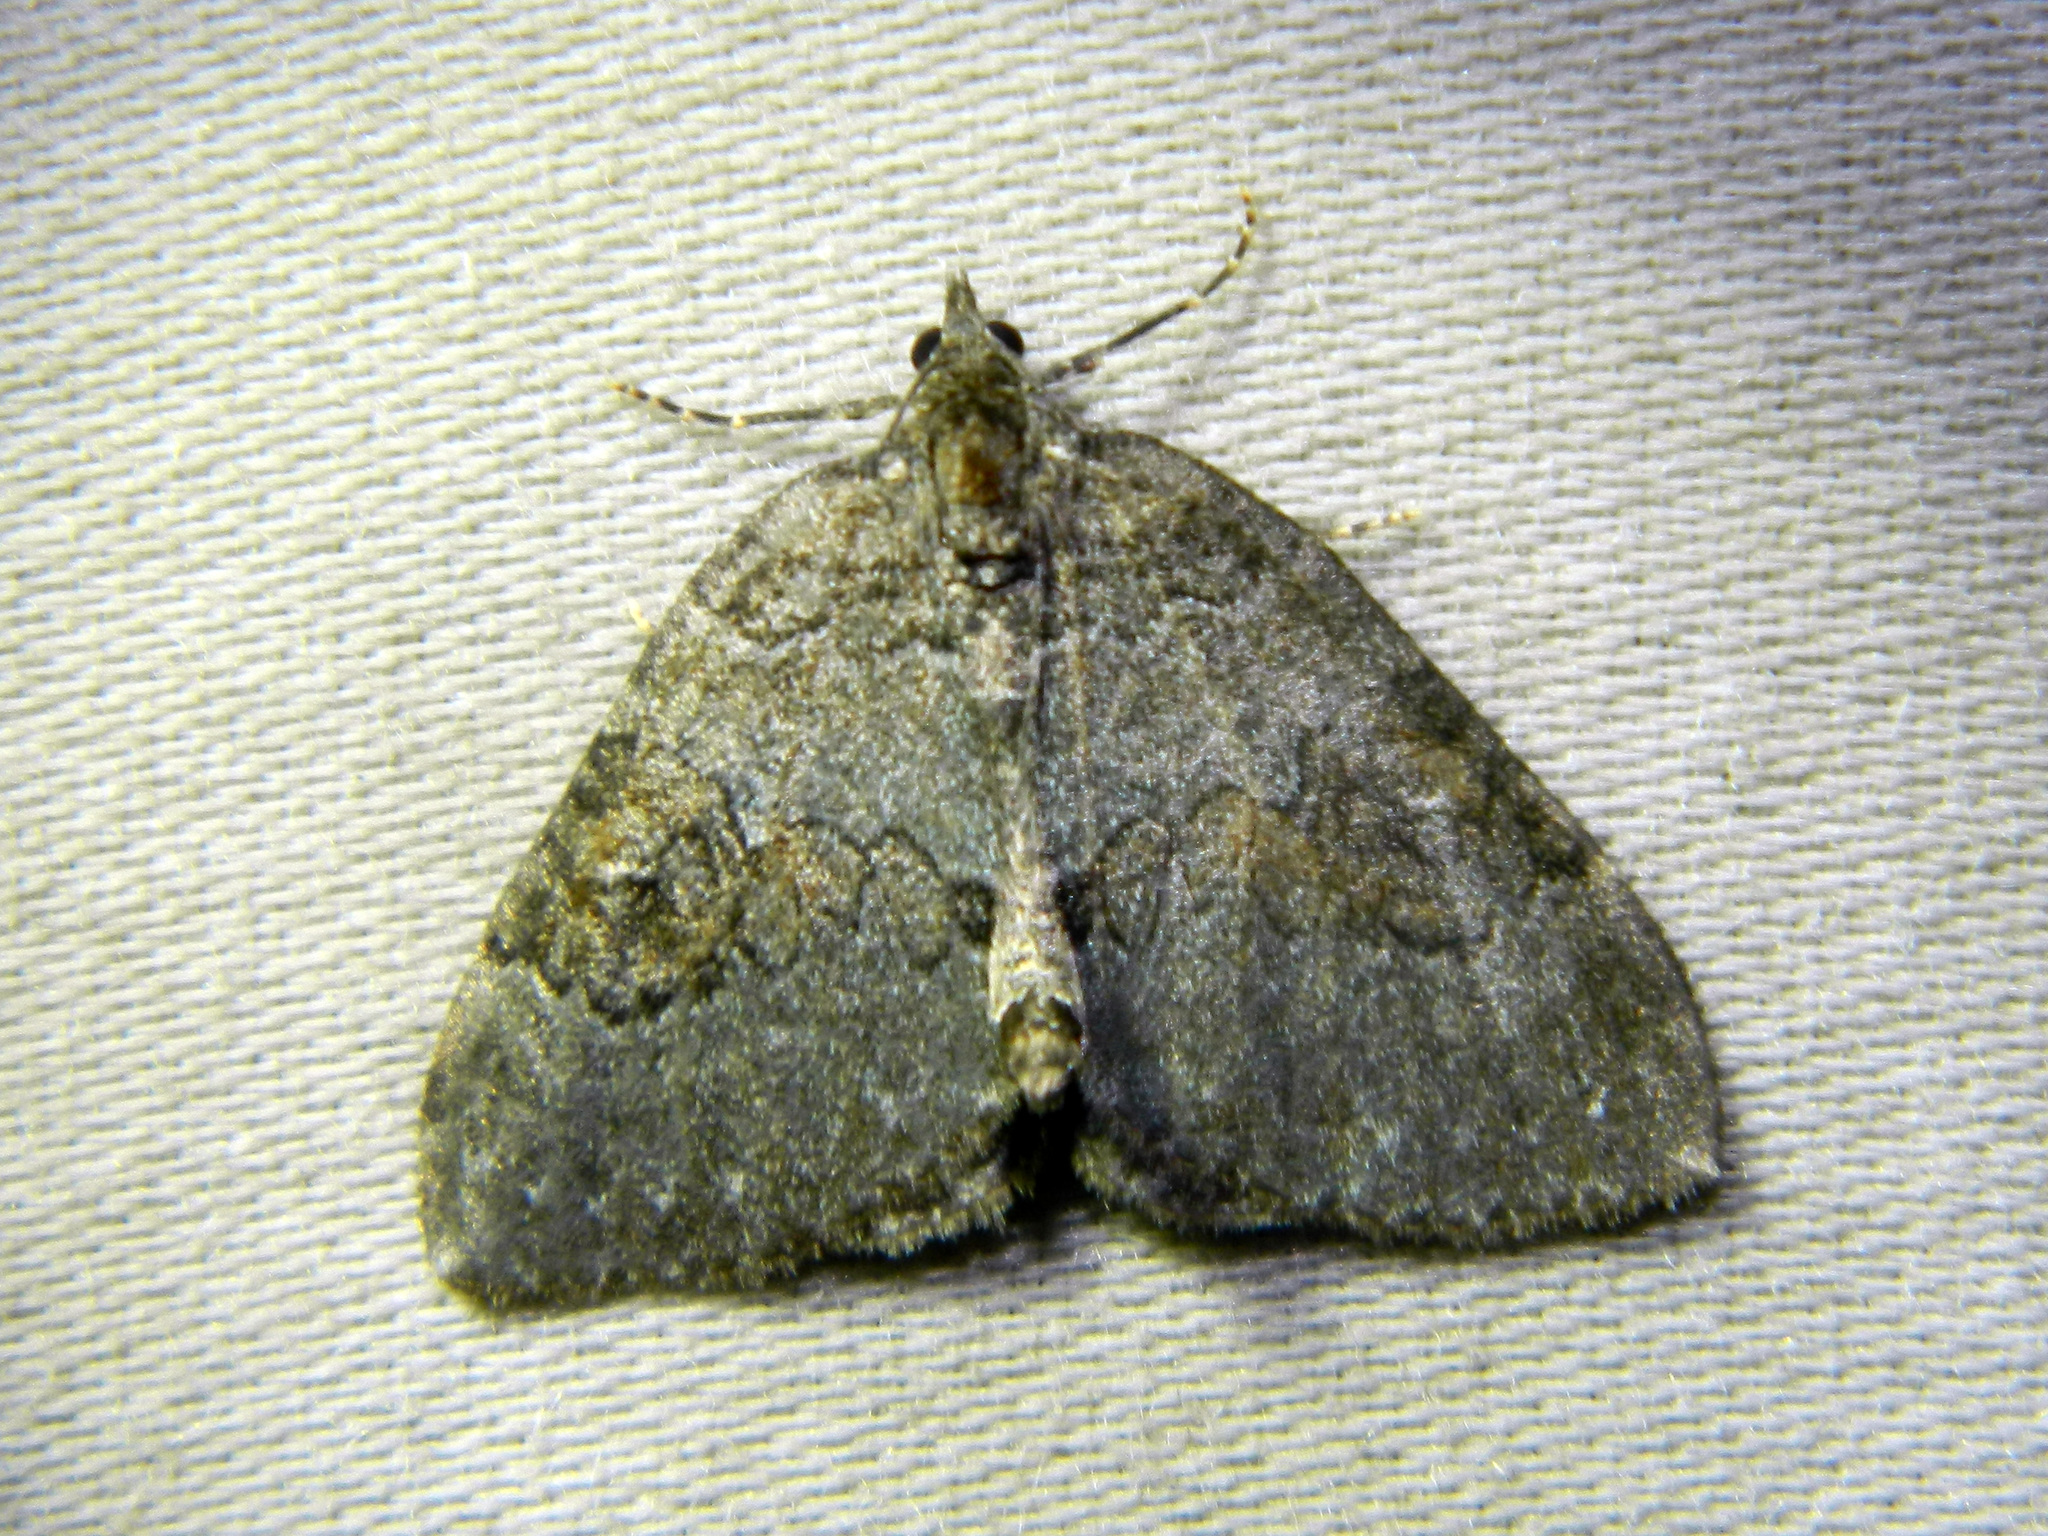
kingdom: Animalia
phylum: Arthropoda
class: Insecta
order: Lepidoptera
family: Geometridae
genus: Plemyria
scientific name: Plemyria georgii
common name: George's carpet moth
